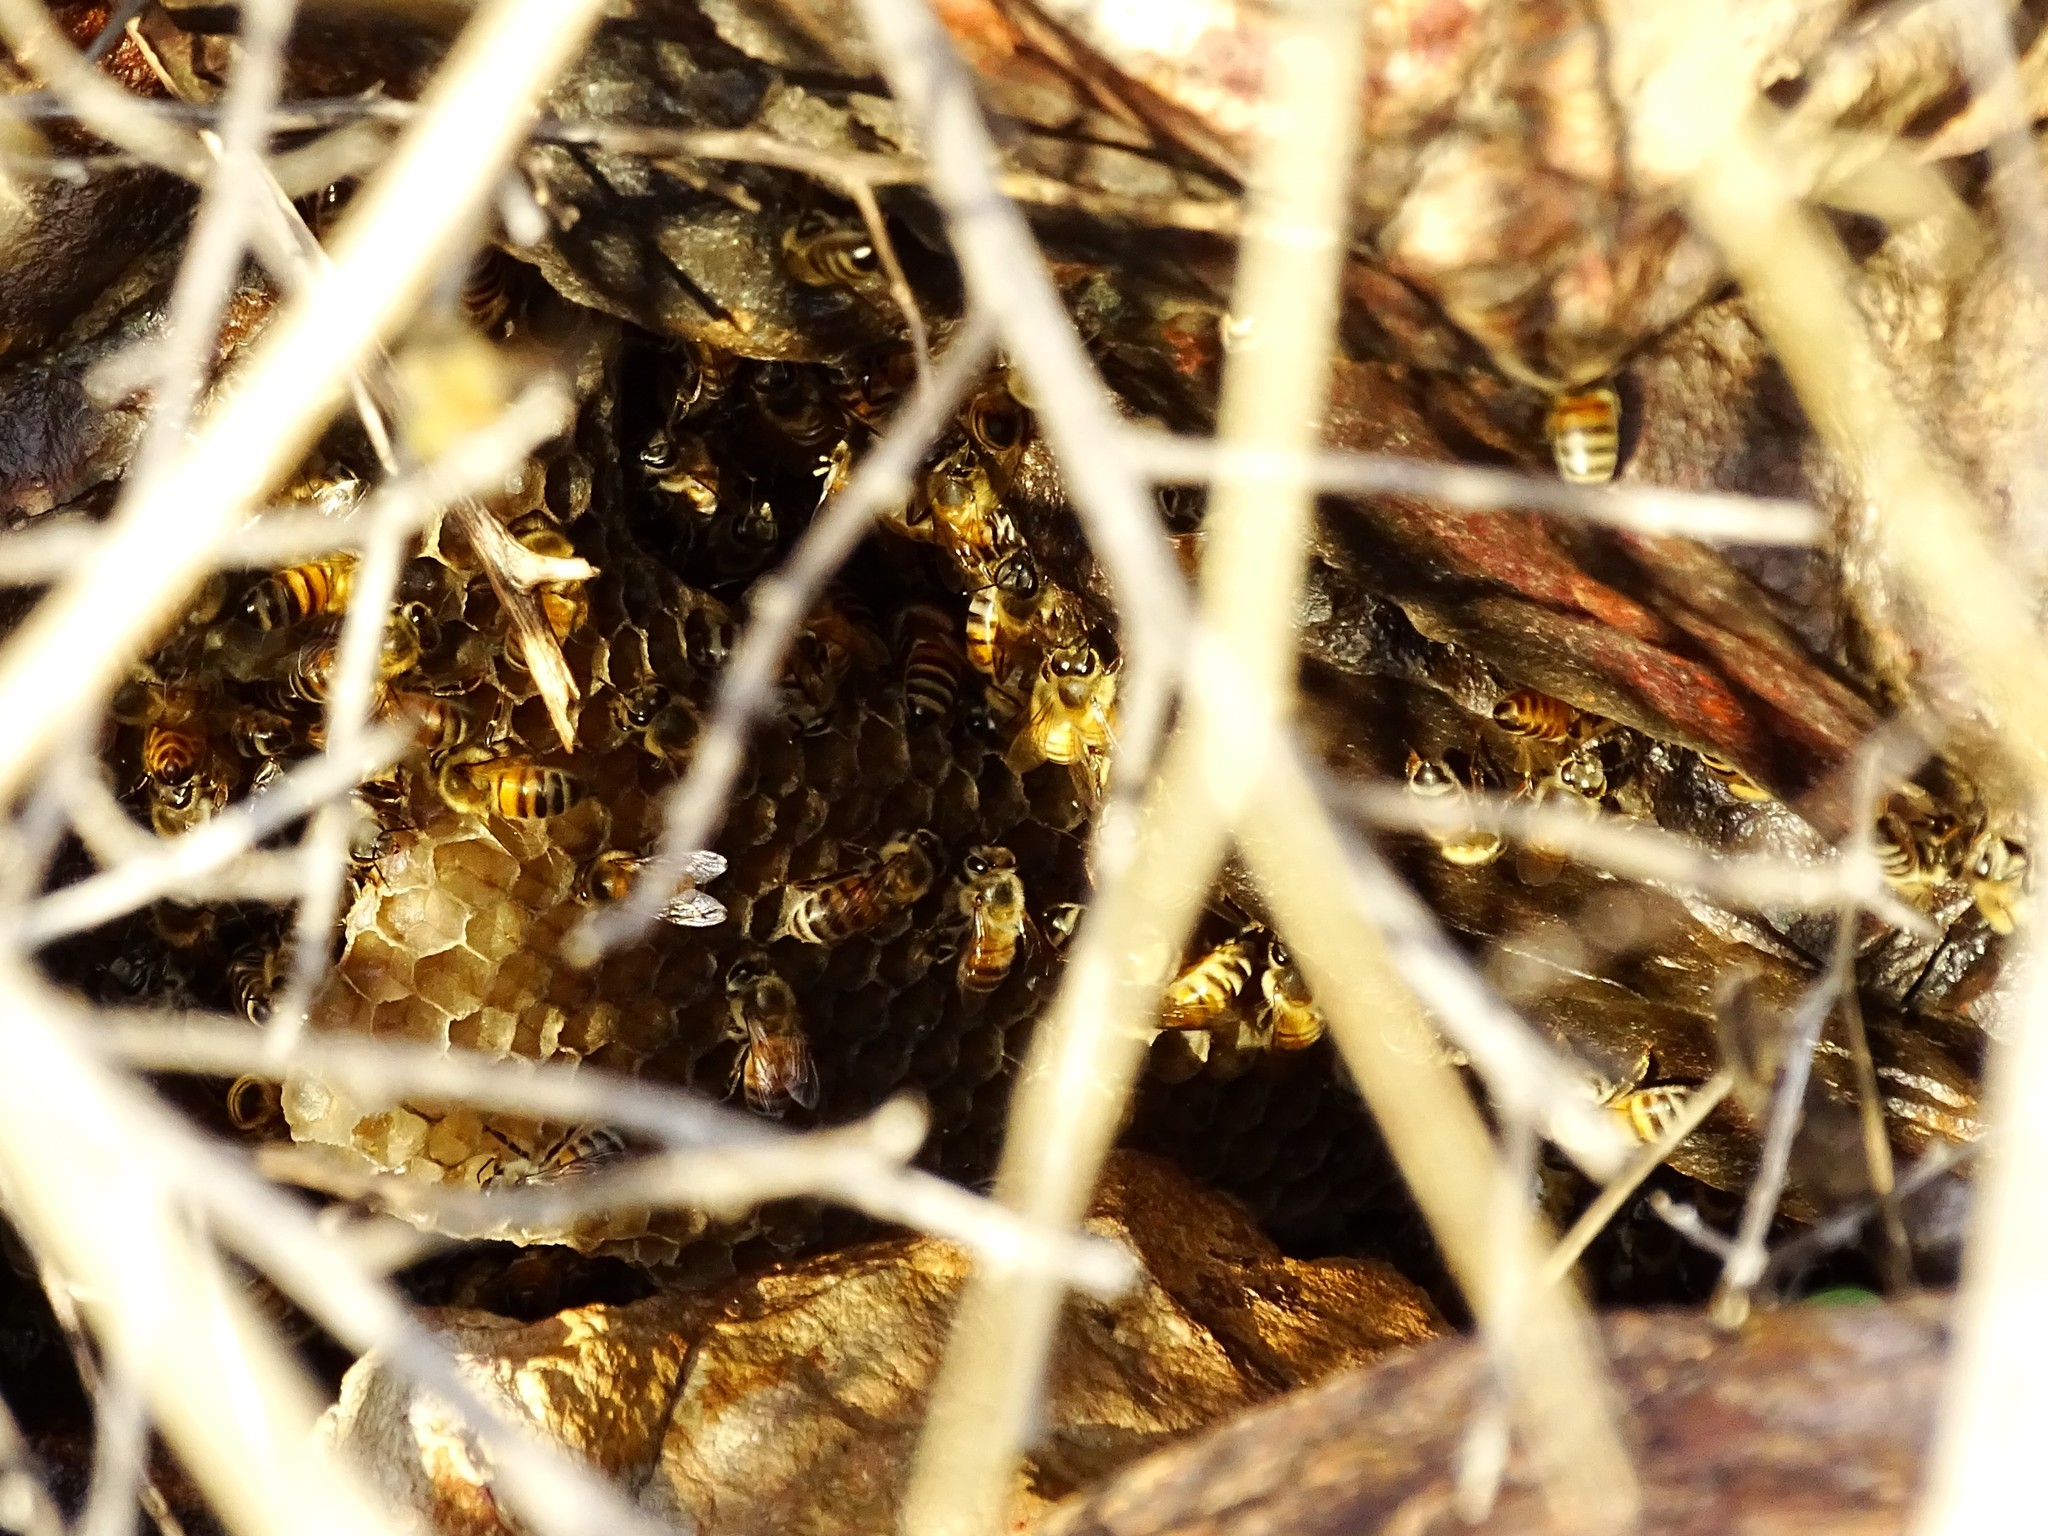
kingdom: Animalia
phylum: Arthropoda
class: Insecta
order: Hymenoptera
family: Apidae
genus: Apis
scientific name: Apis mellifera
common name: Honey bee
